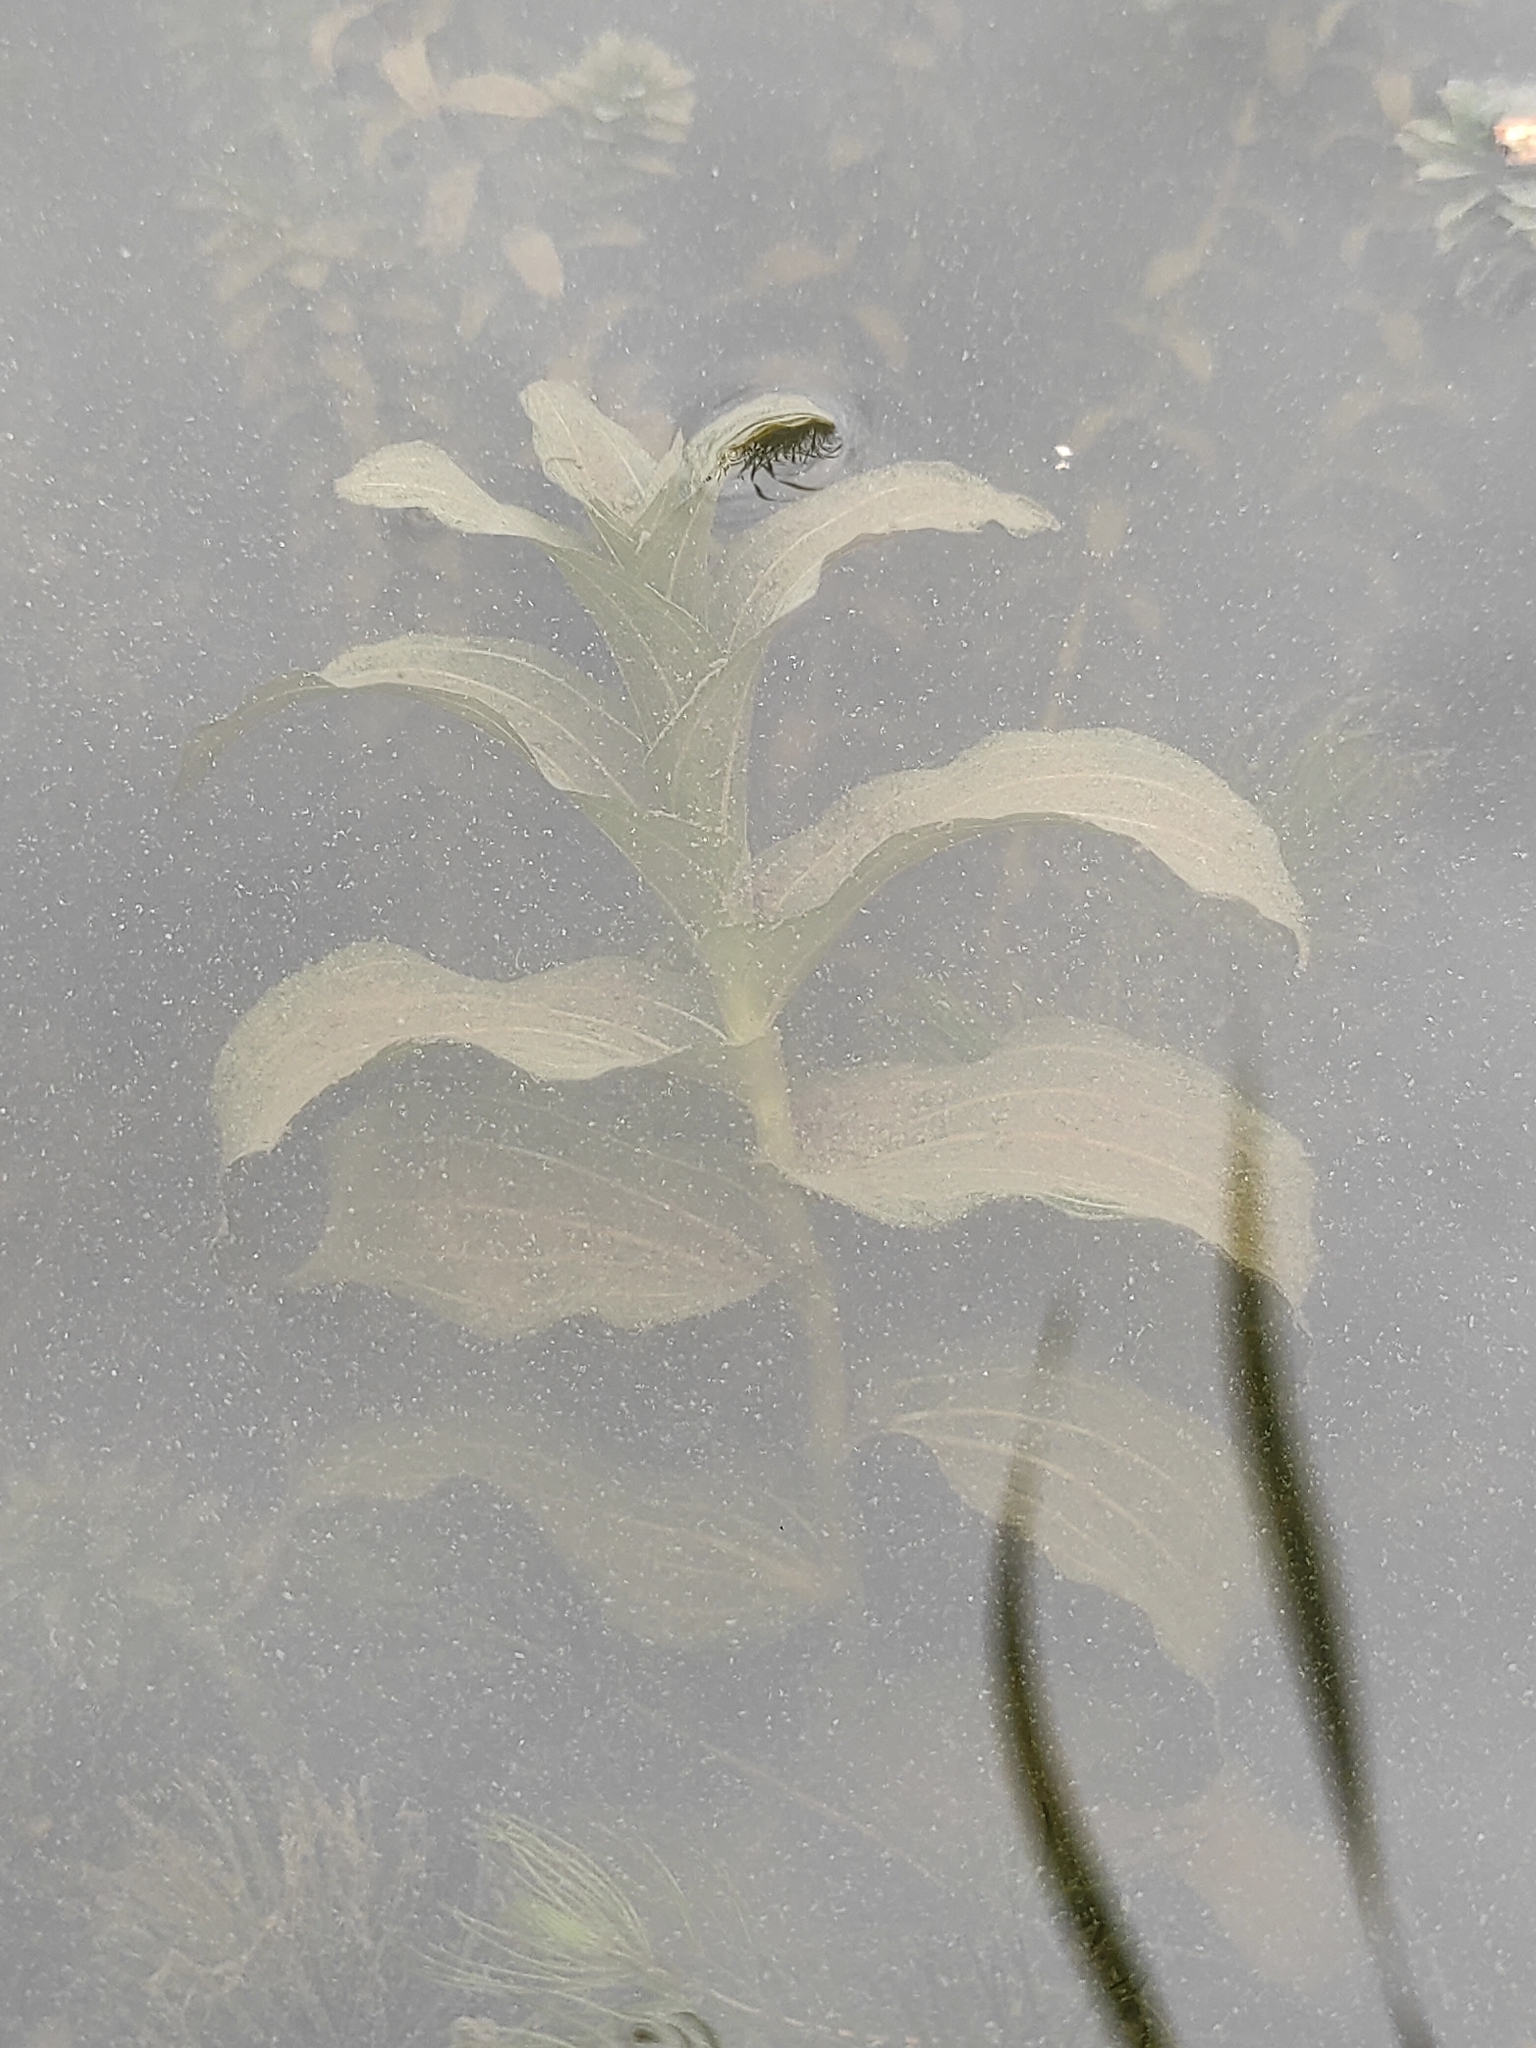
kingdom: Plantae
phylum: Tracheophyta
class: Liliopsida
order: Alismatales
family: Potamogetonaceae
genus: Potamogeton
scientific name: Potamogeton perfoliatus
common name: Perfoliate pondweed
